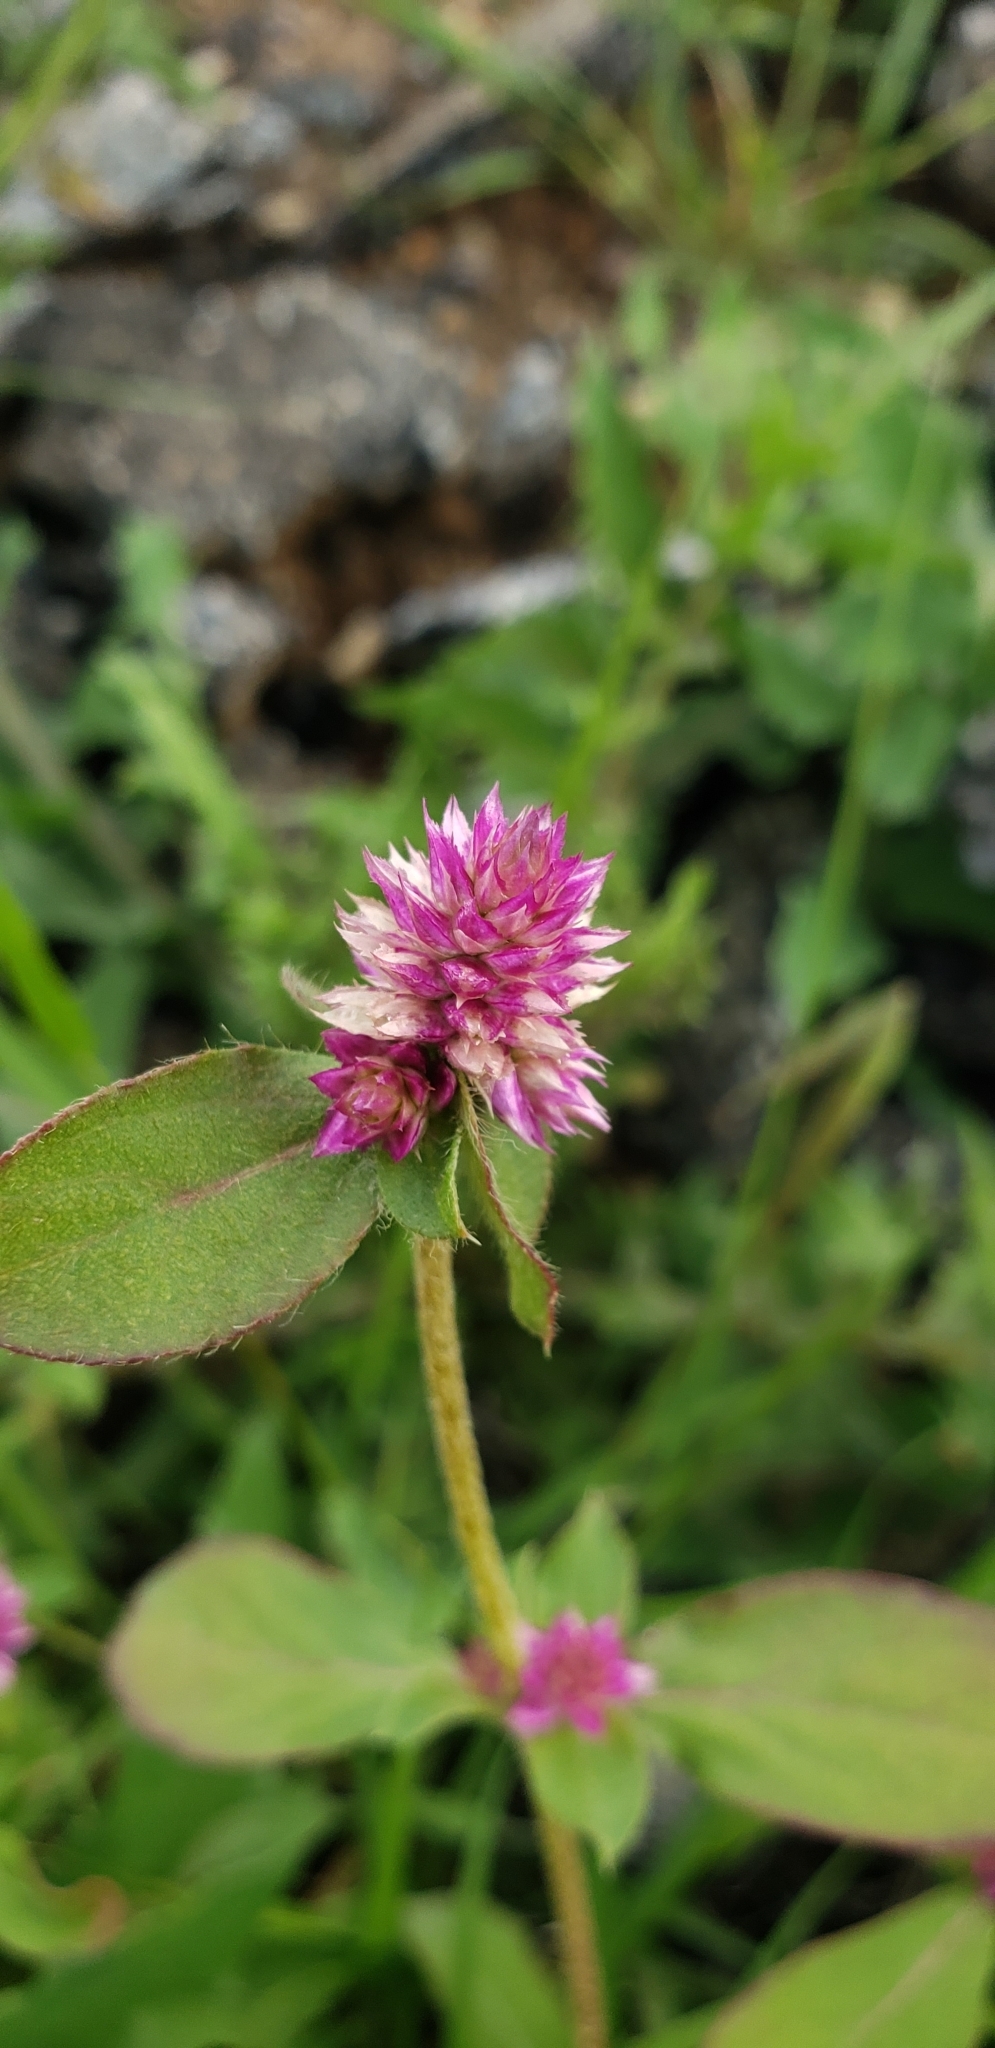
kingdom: Plantae
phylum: Tracheophyta
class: Magnoliopsida
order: Caryophyllales
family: Amaranthaceae
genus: Gomphrena
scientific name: Gomphrena serrata
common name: Arrasa con todo
